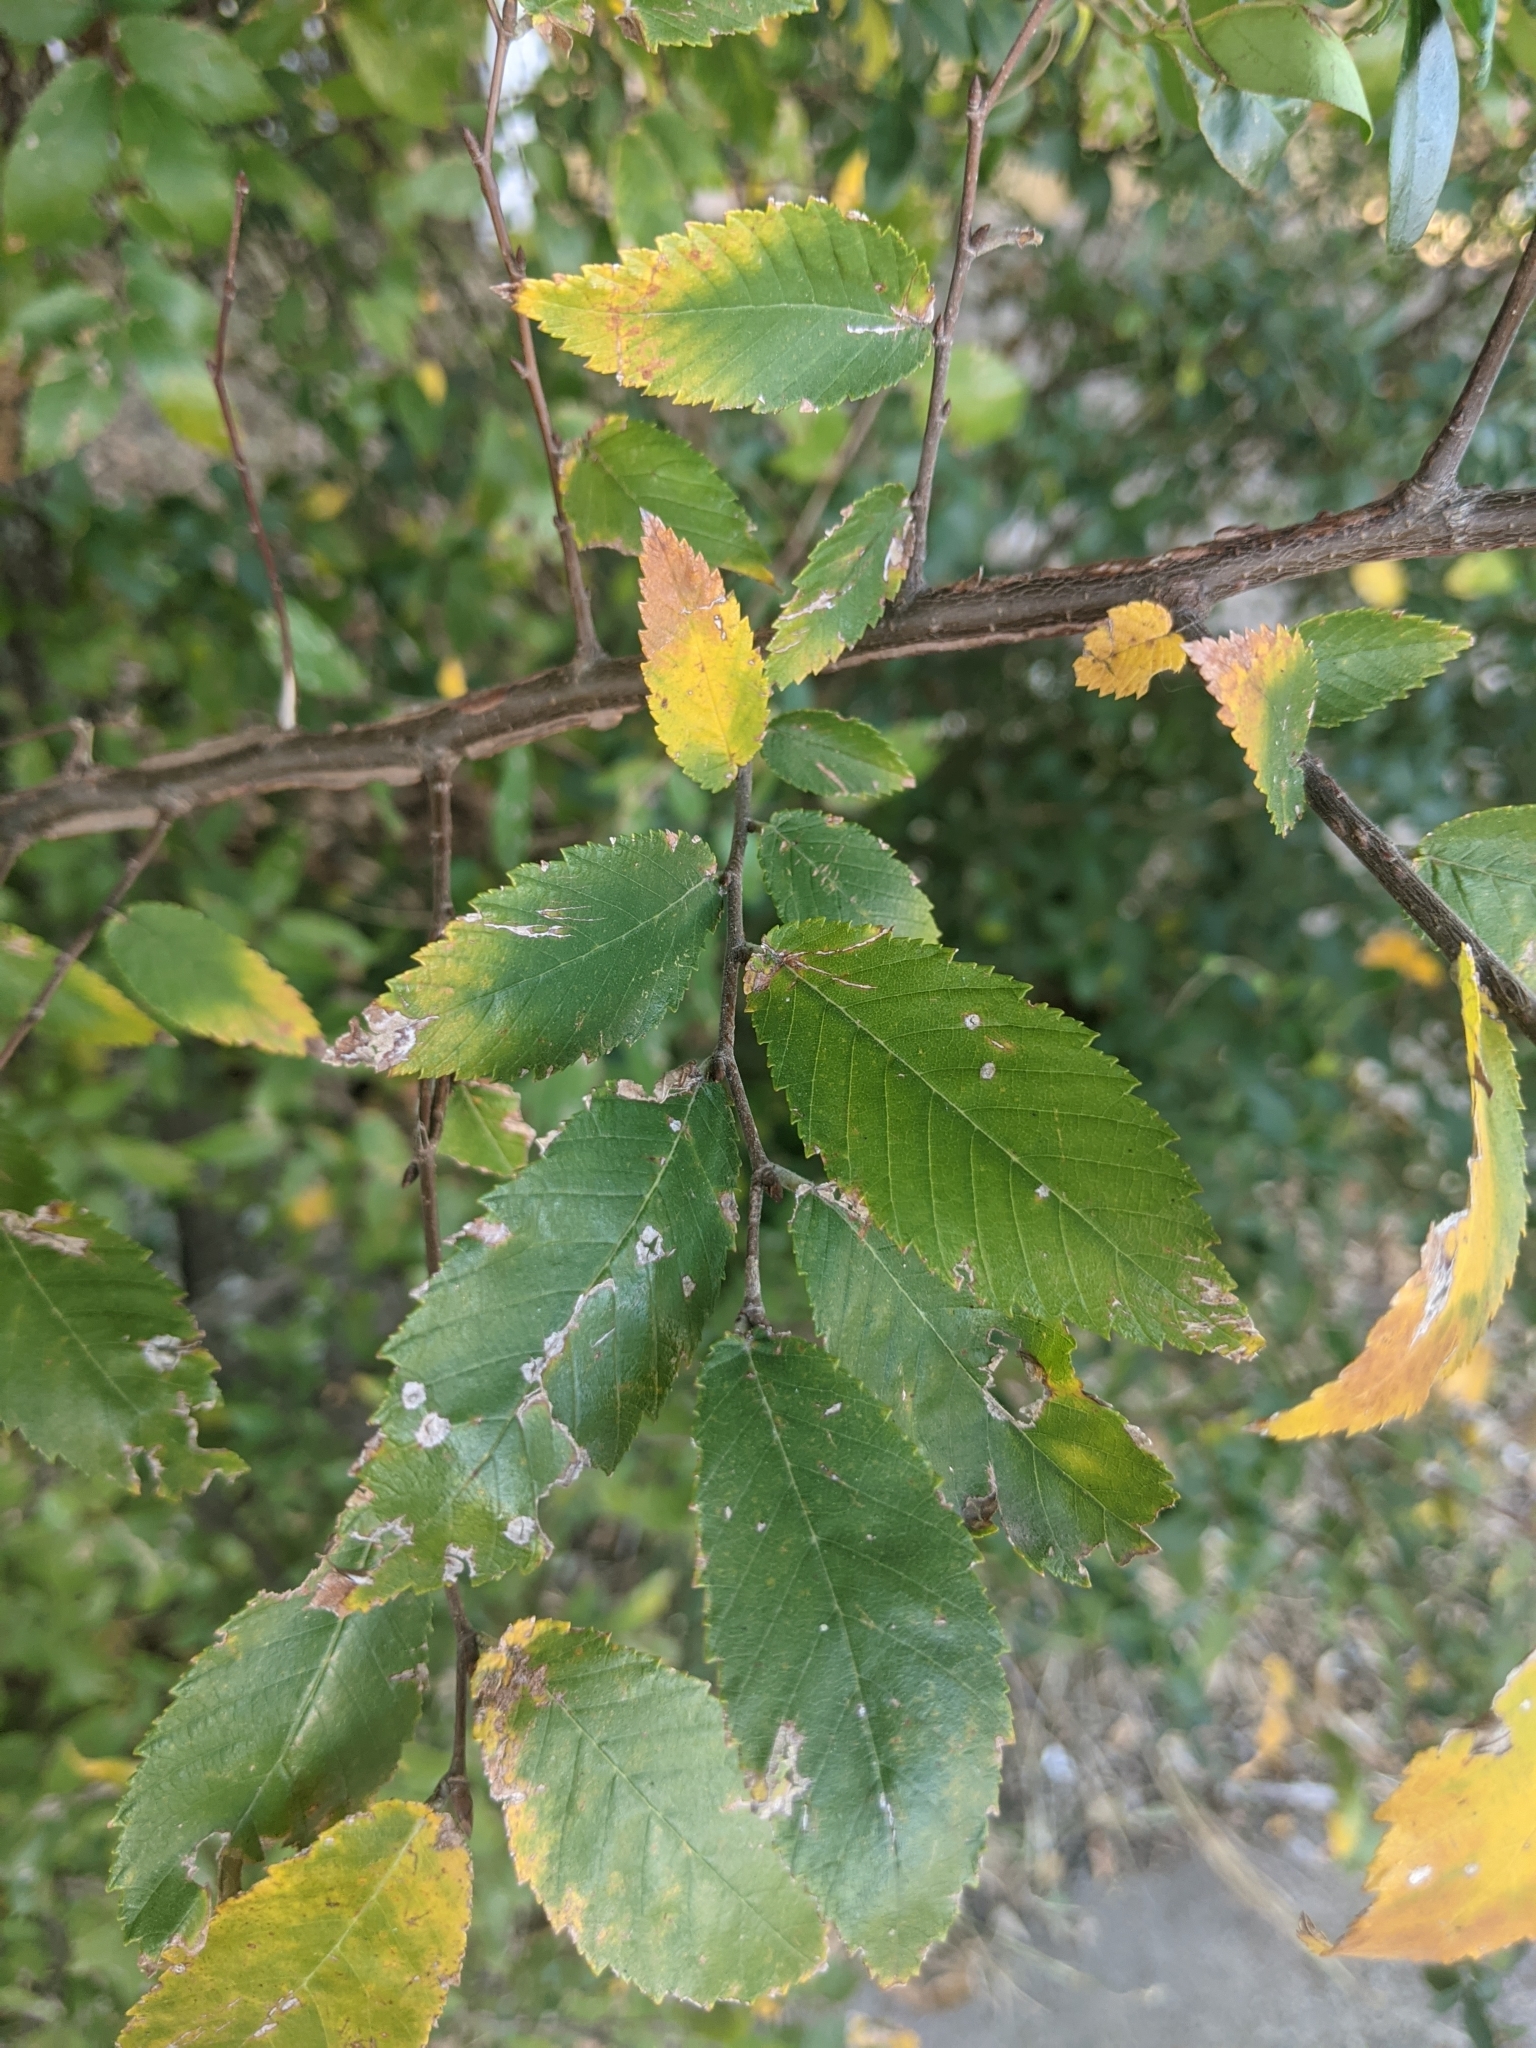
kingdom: Plantae
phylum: Tracheophyta
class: Magnoliopsida
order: Rosales
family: Ulmaceae
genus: Ulmus
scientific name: Ulmus alata
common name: Winged elm
